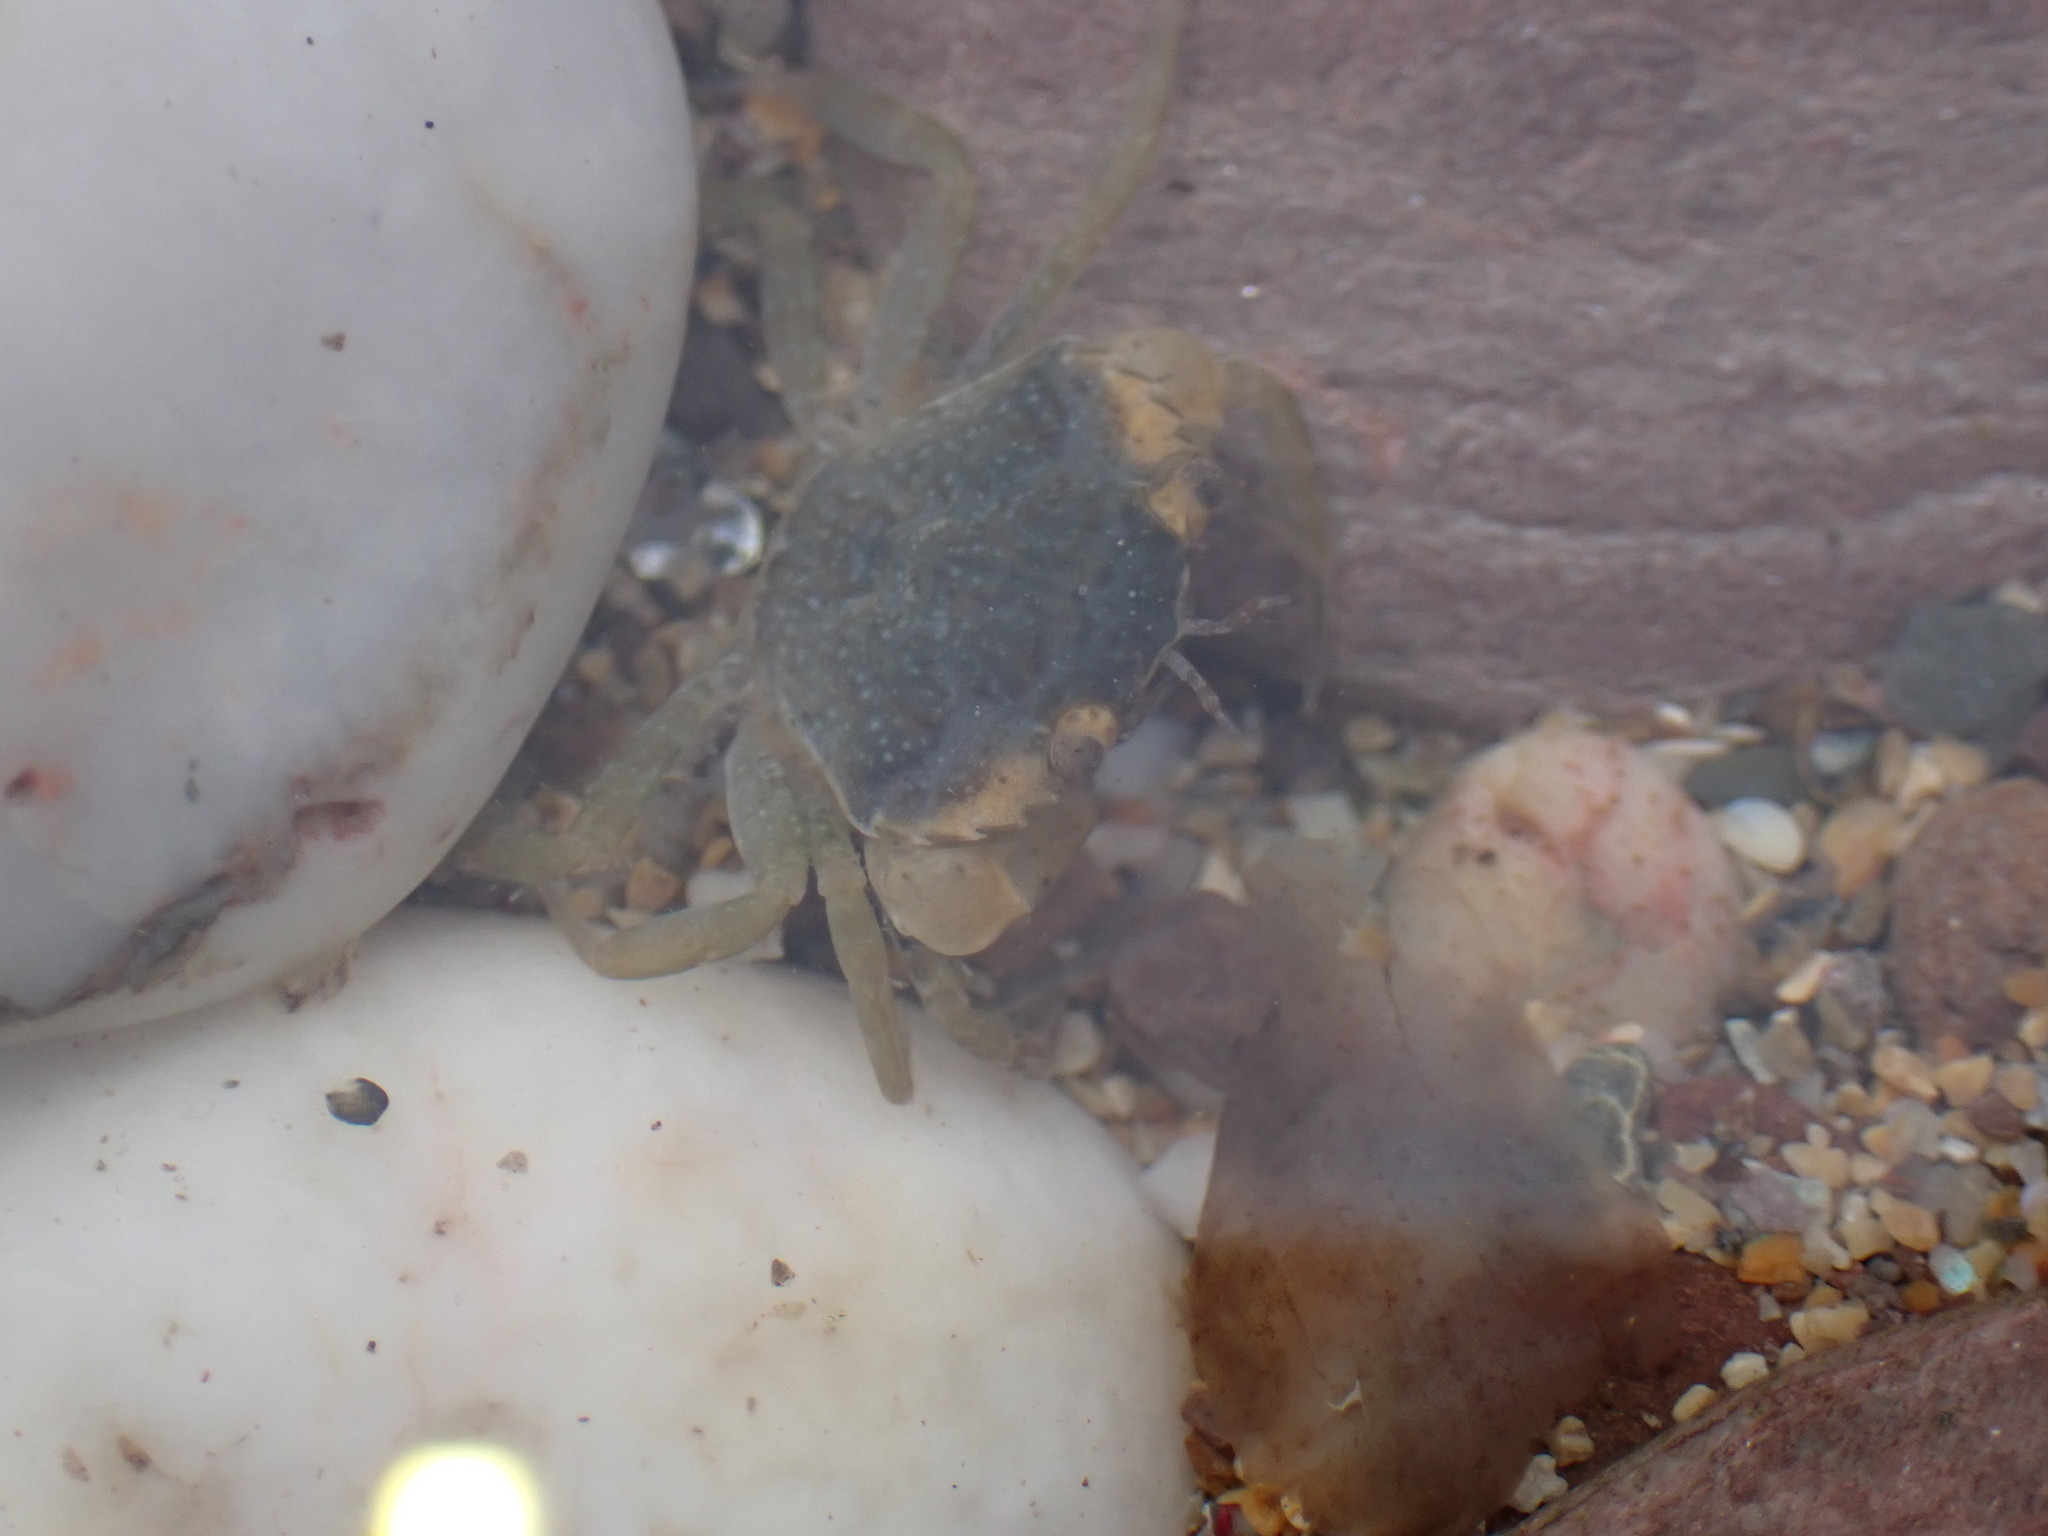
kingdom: Animalia
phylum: Arthropoda
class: Malacostraca
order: Decapoda
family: Carcinidae
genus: Carcinus
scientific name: Carcinus maenas
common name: European green crab
